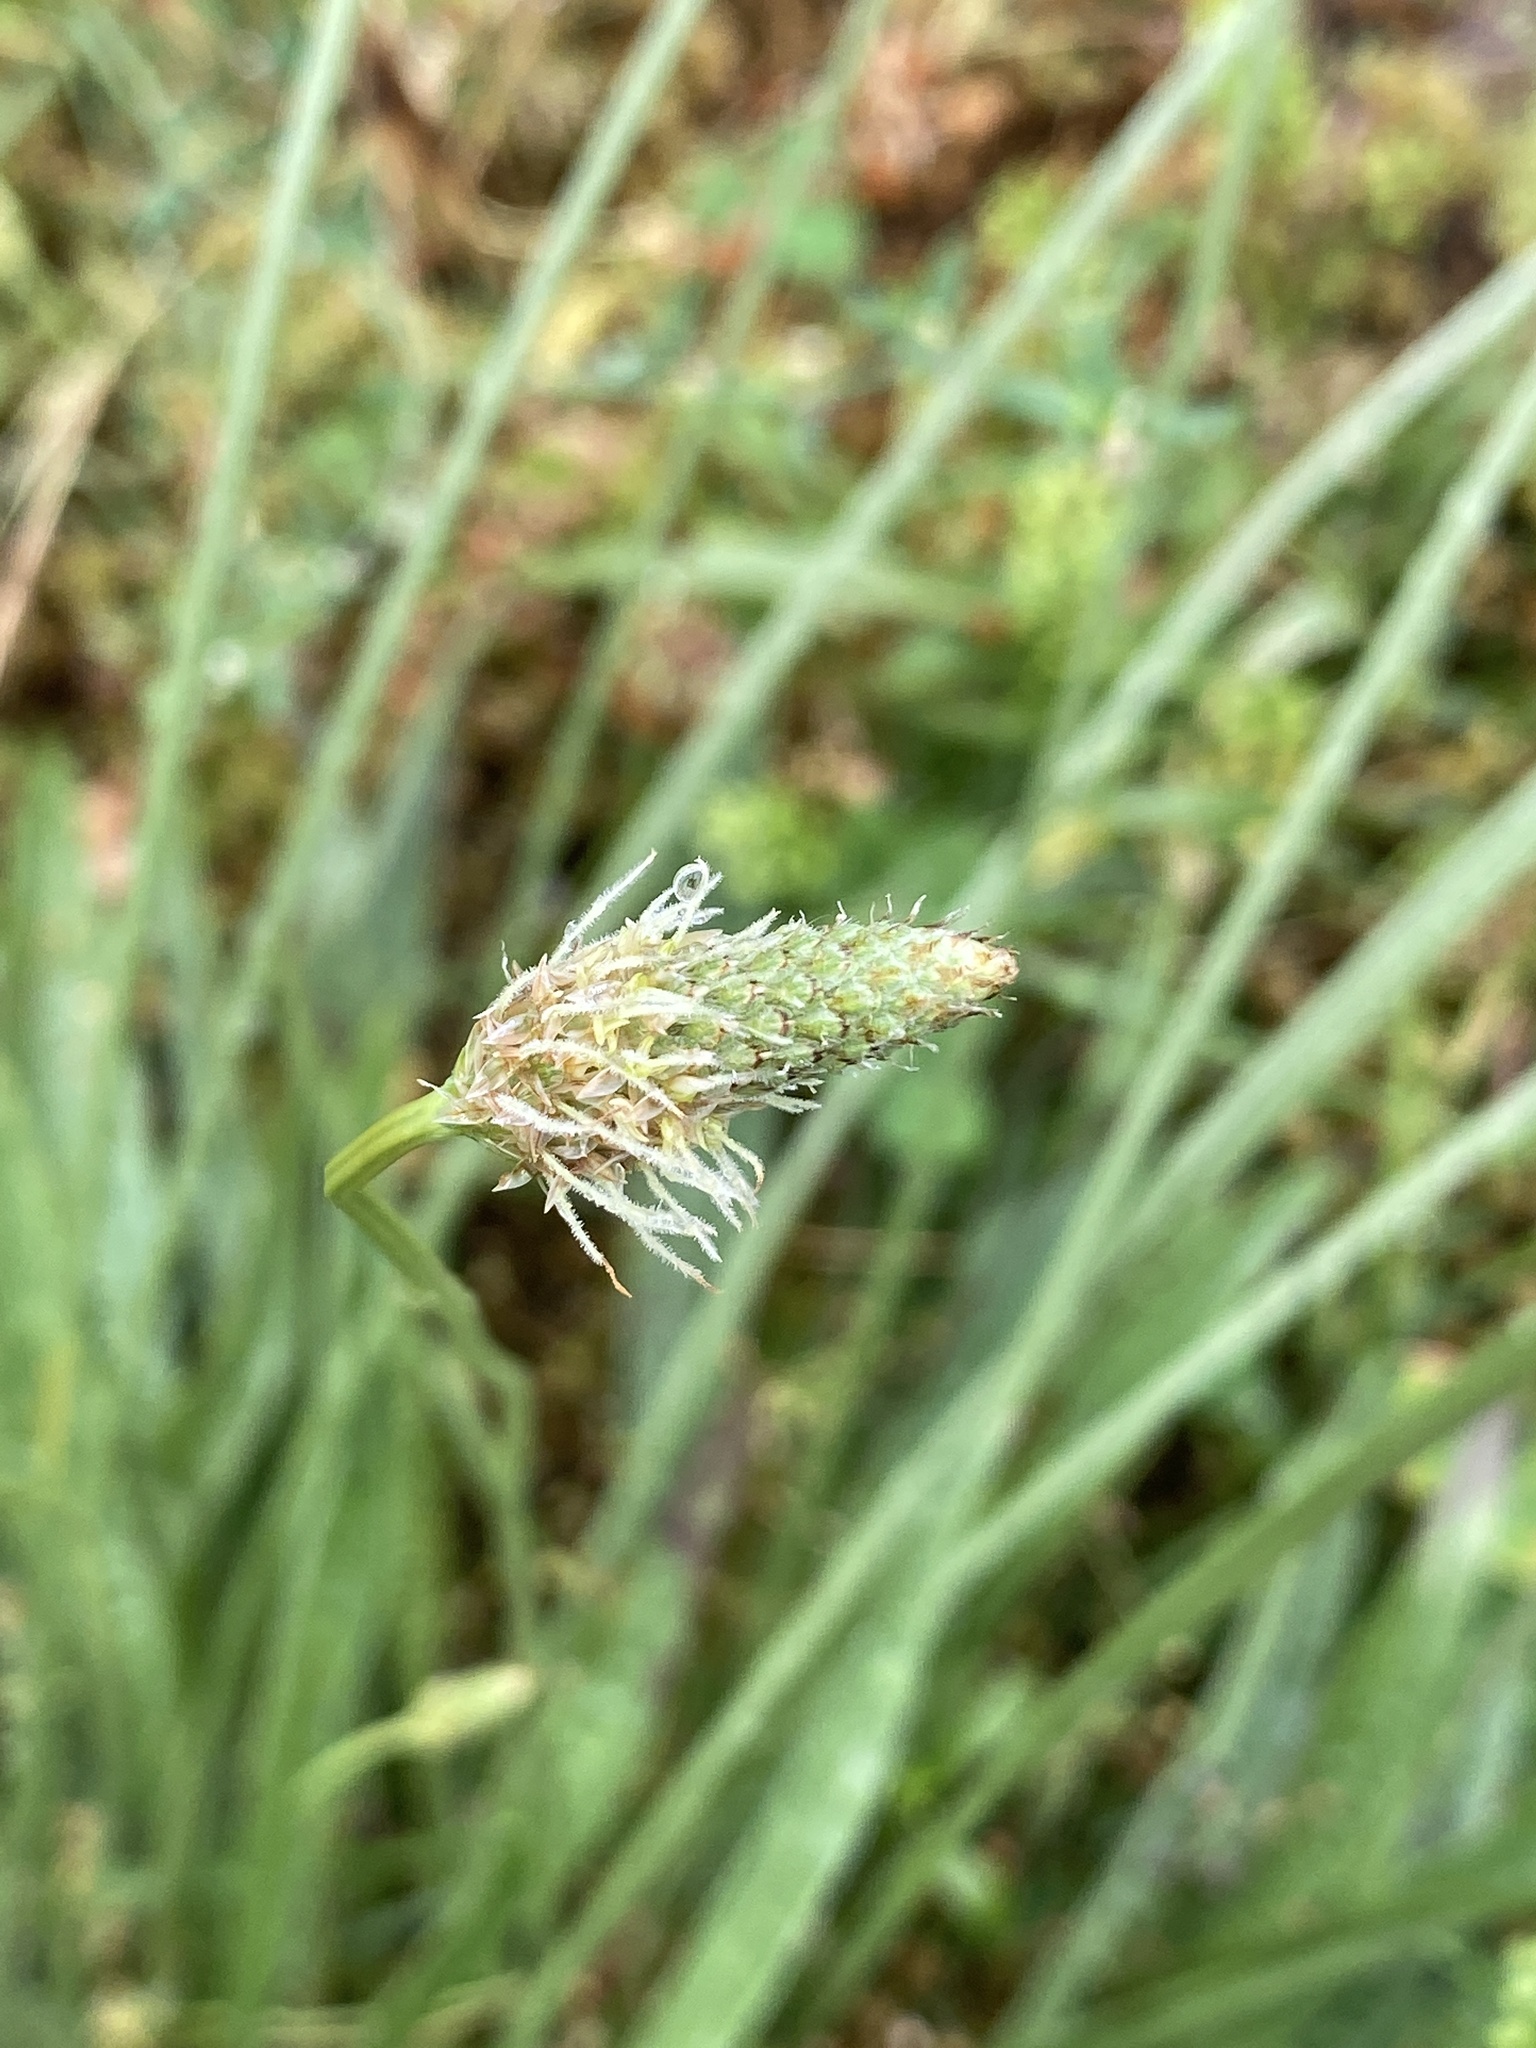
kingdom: Plantae
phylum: Tracheophyta
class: Magnoliopsida
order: Lamiales
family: Plantaginaceae
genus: Plantago
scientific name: Plantago lanceolata
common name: Ribwort plantain
